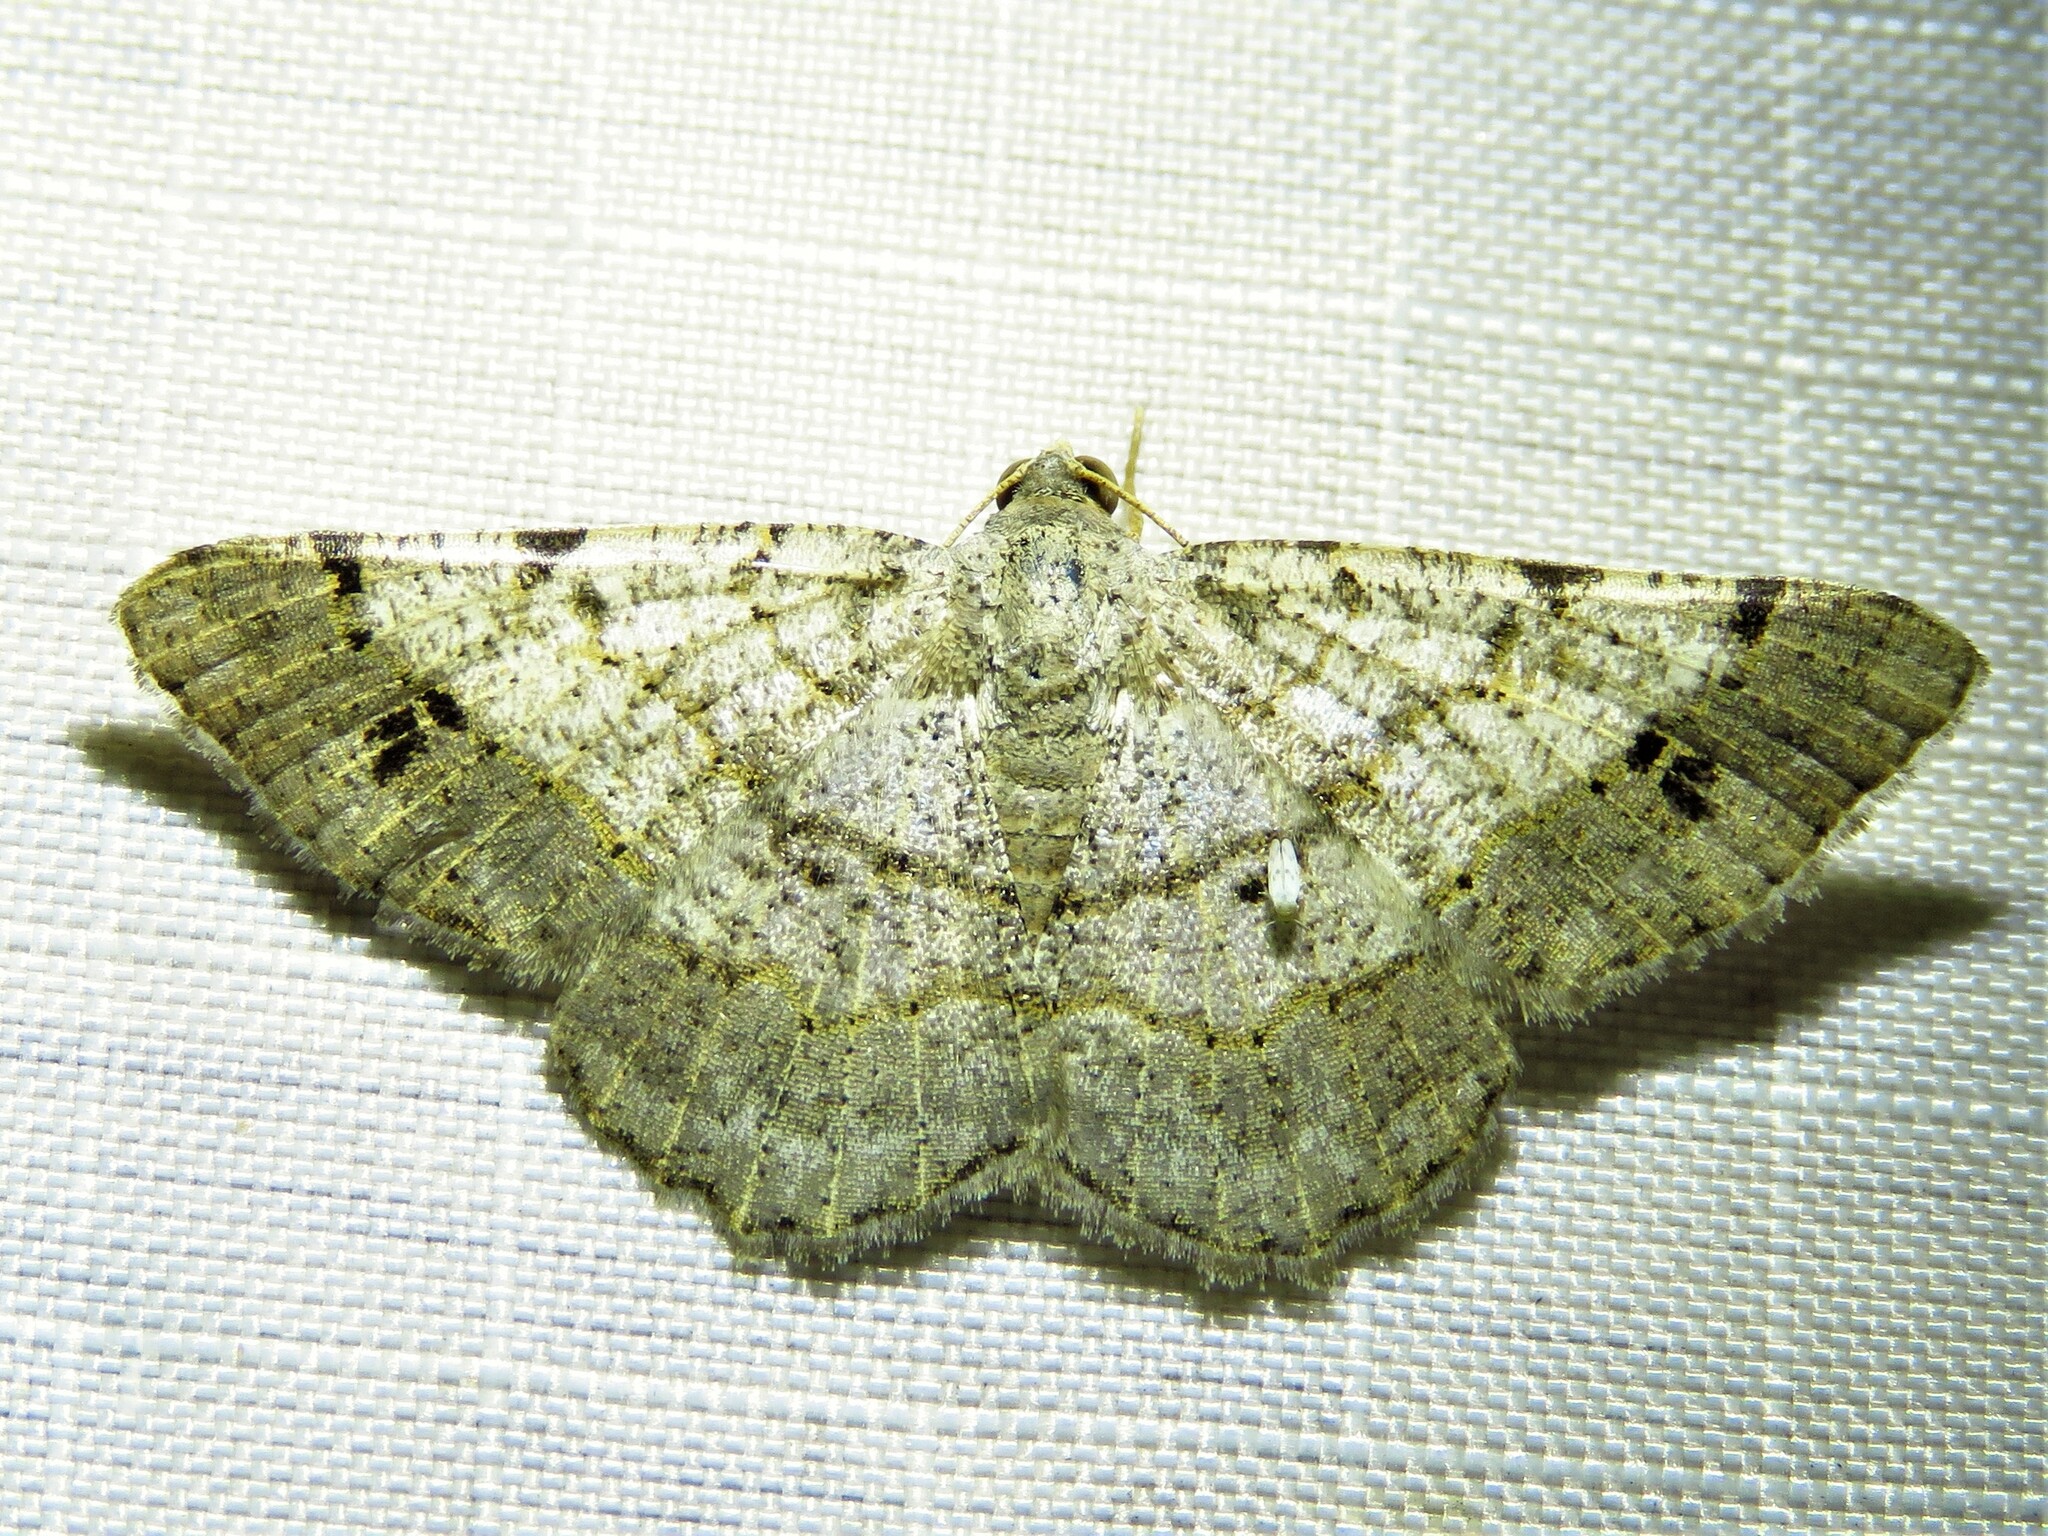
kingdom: Animalia
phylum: Arthropoda
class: Insecta
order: Lepidoptera
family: Geometridae
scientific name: Geometridae
